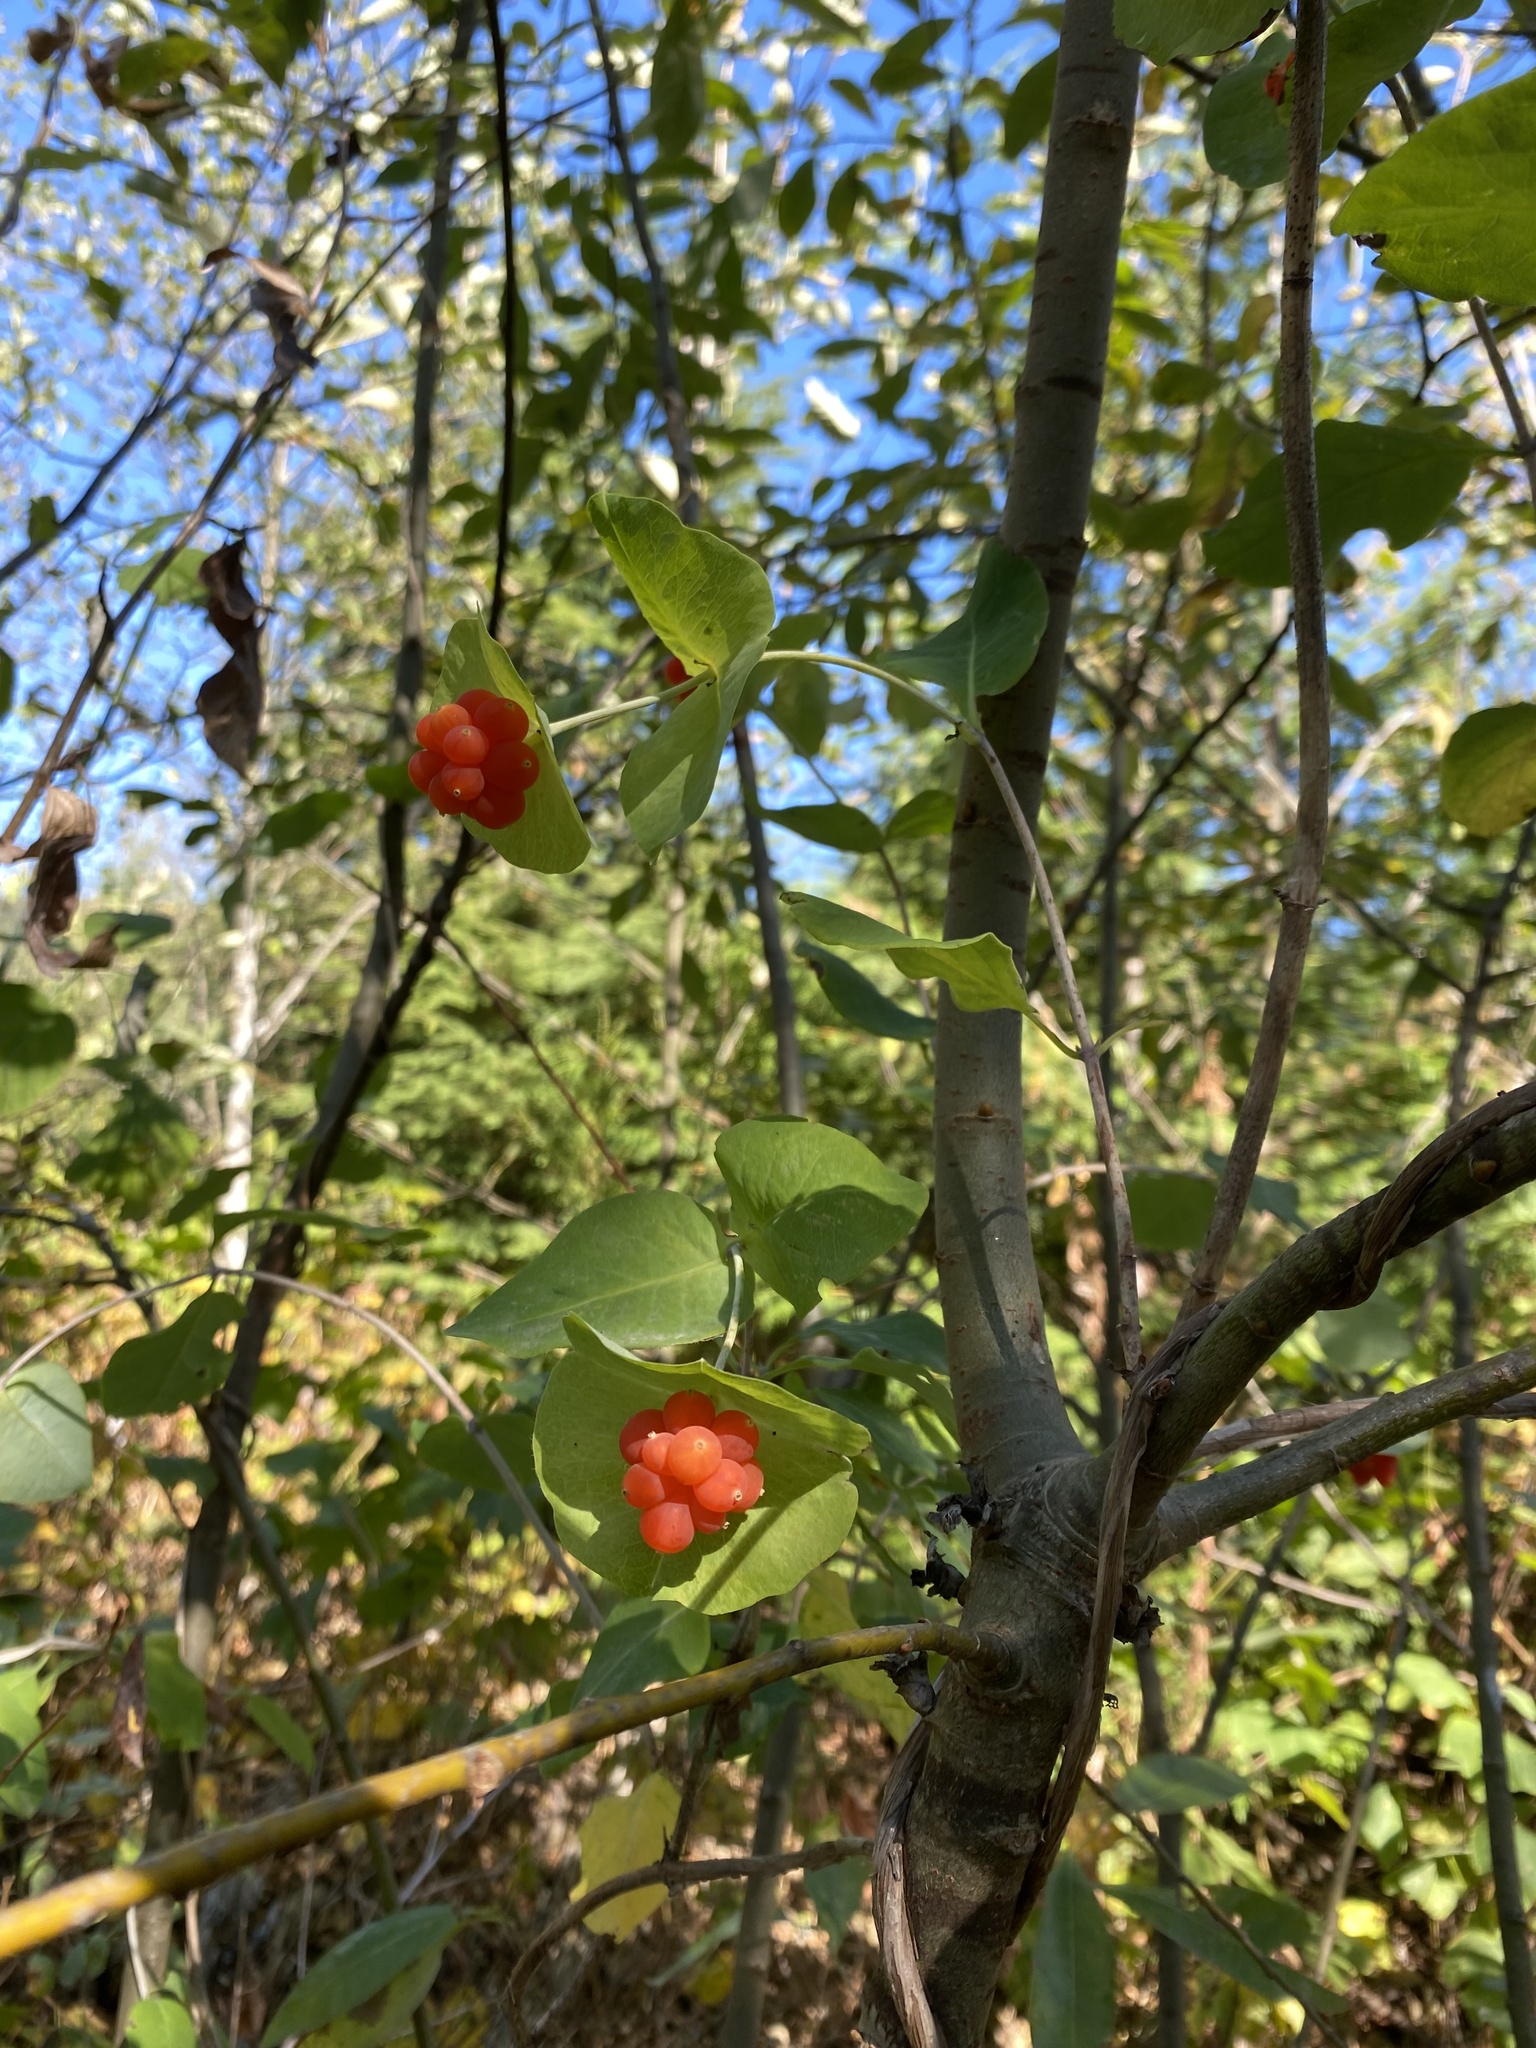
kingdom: Plantae
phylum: Tracheophyta
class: Magnoliopsida
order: Dipsacales
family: Caprifoliaceae
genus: Lonicera
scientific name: Lonicera ciliosa
